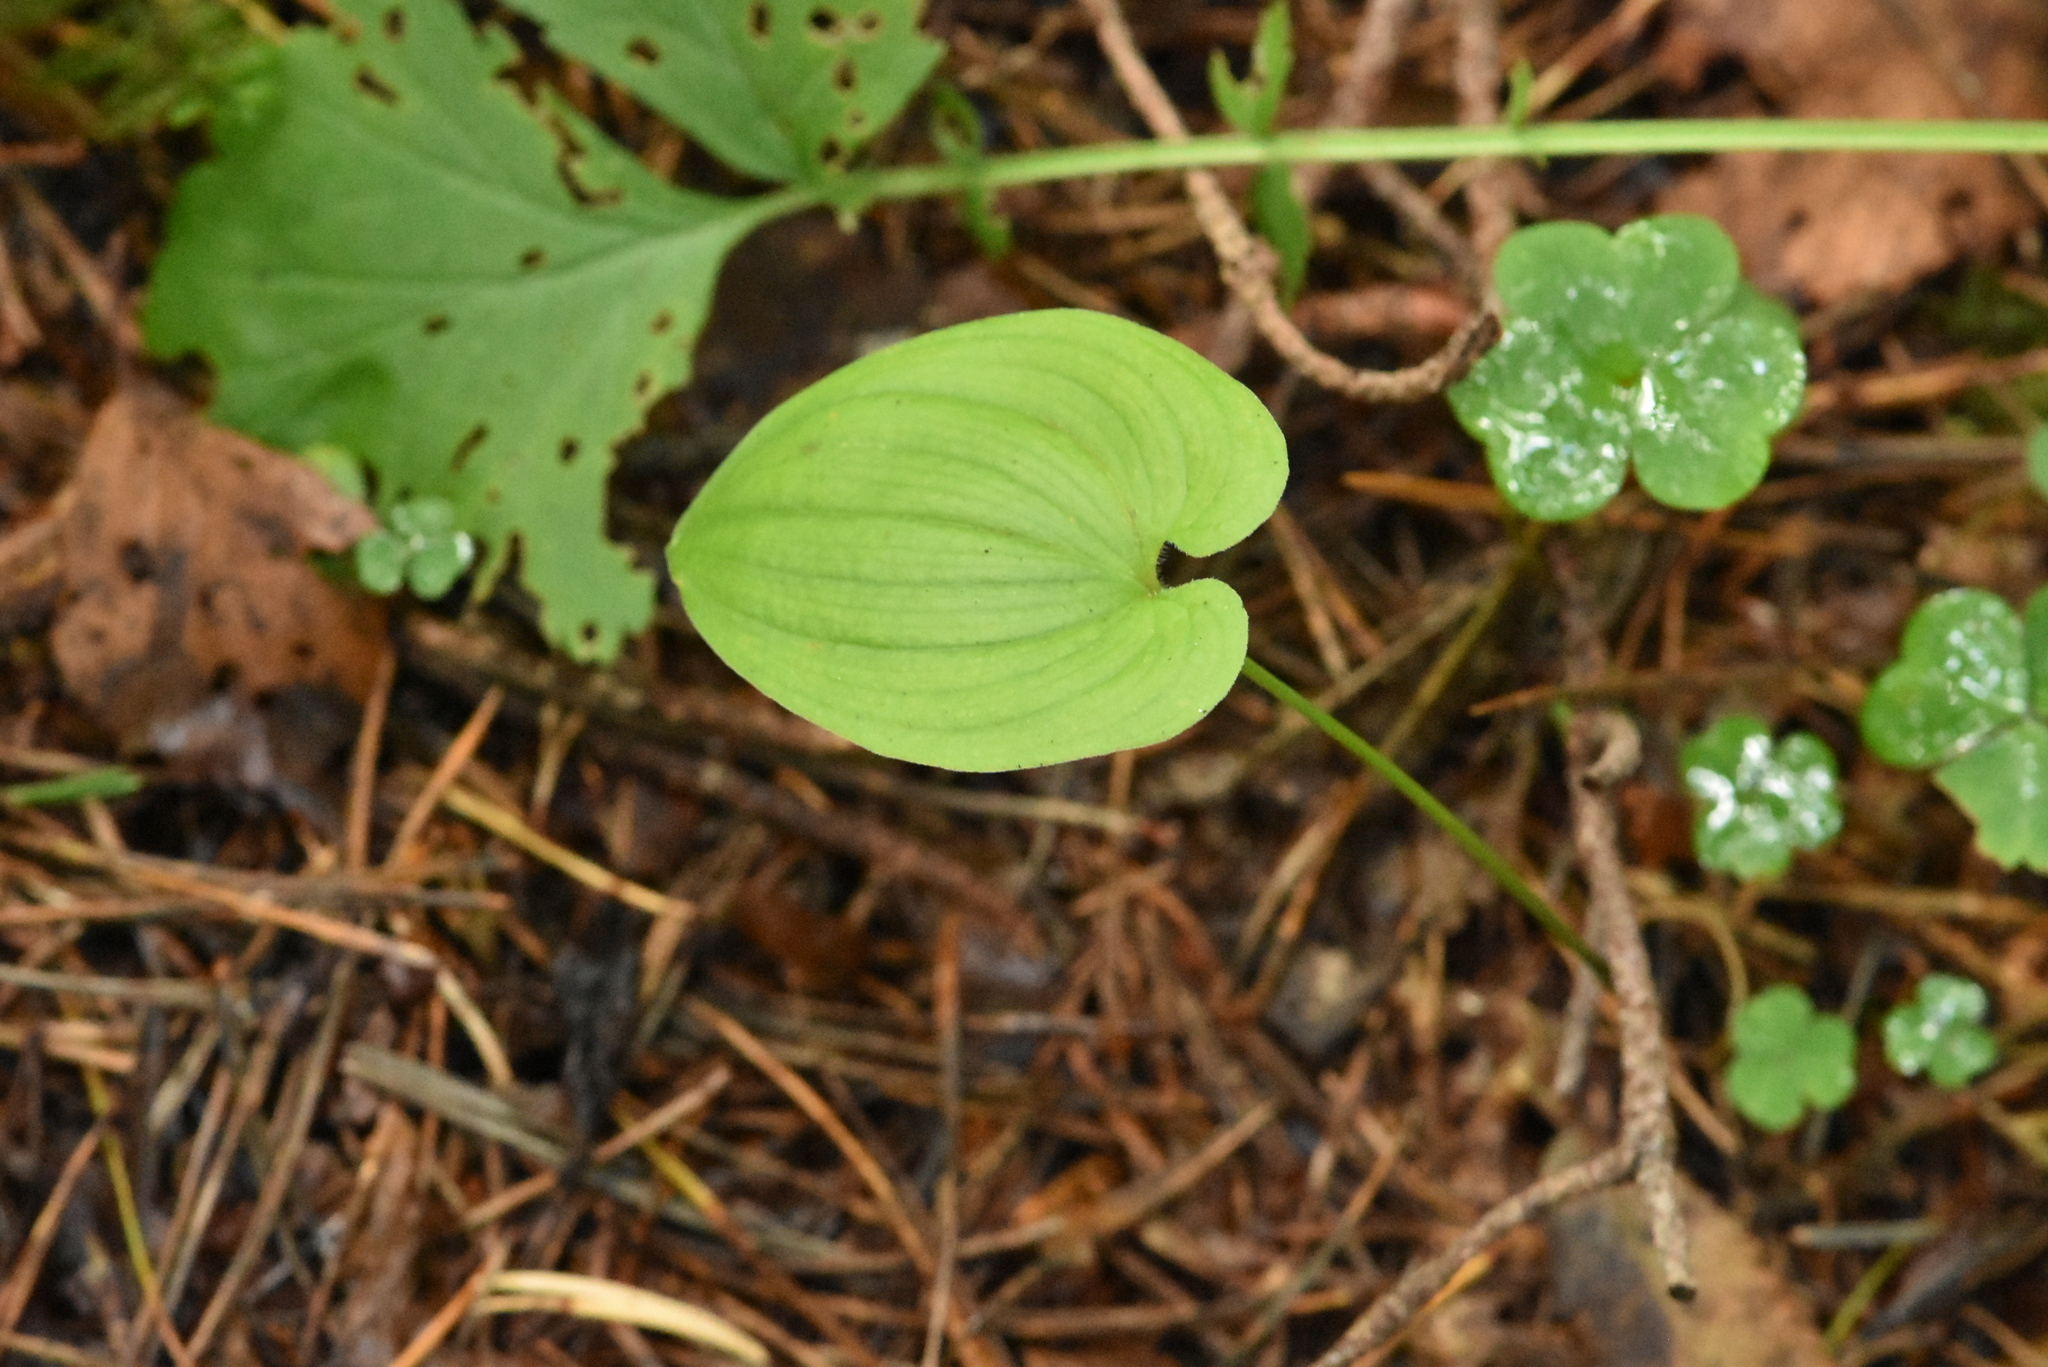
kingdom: Plantae
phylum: Tracheophyta
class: Liliopsida
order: Asparagales
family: Asparagaceae
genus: Maianthemum
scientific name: Maianthemum bifolium
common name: May lily
